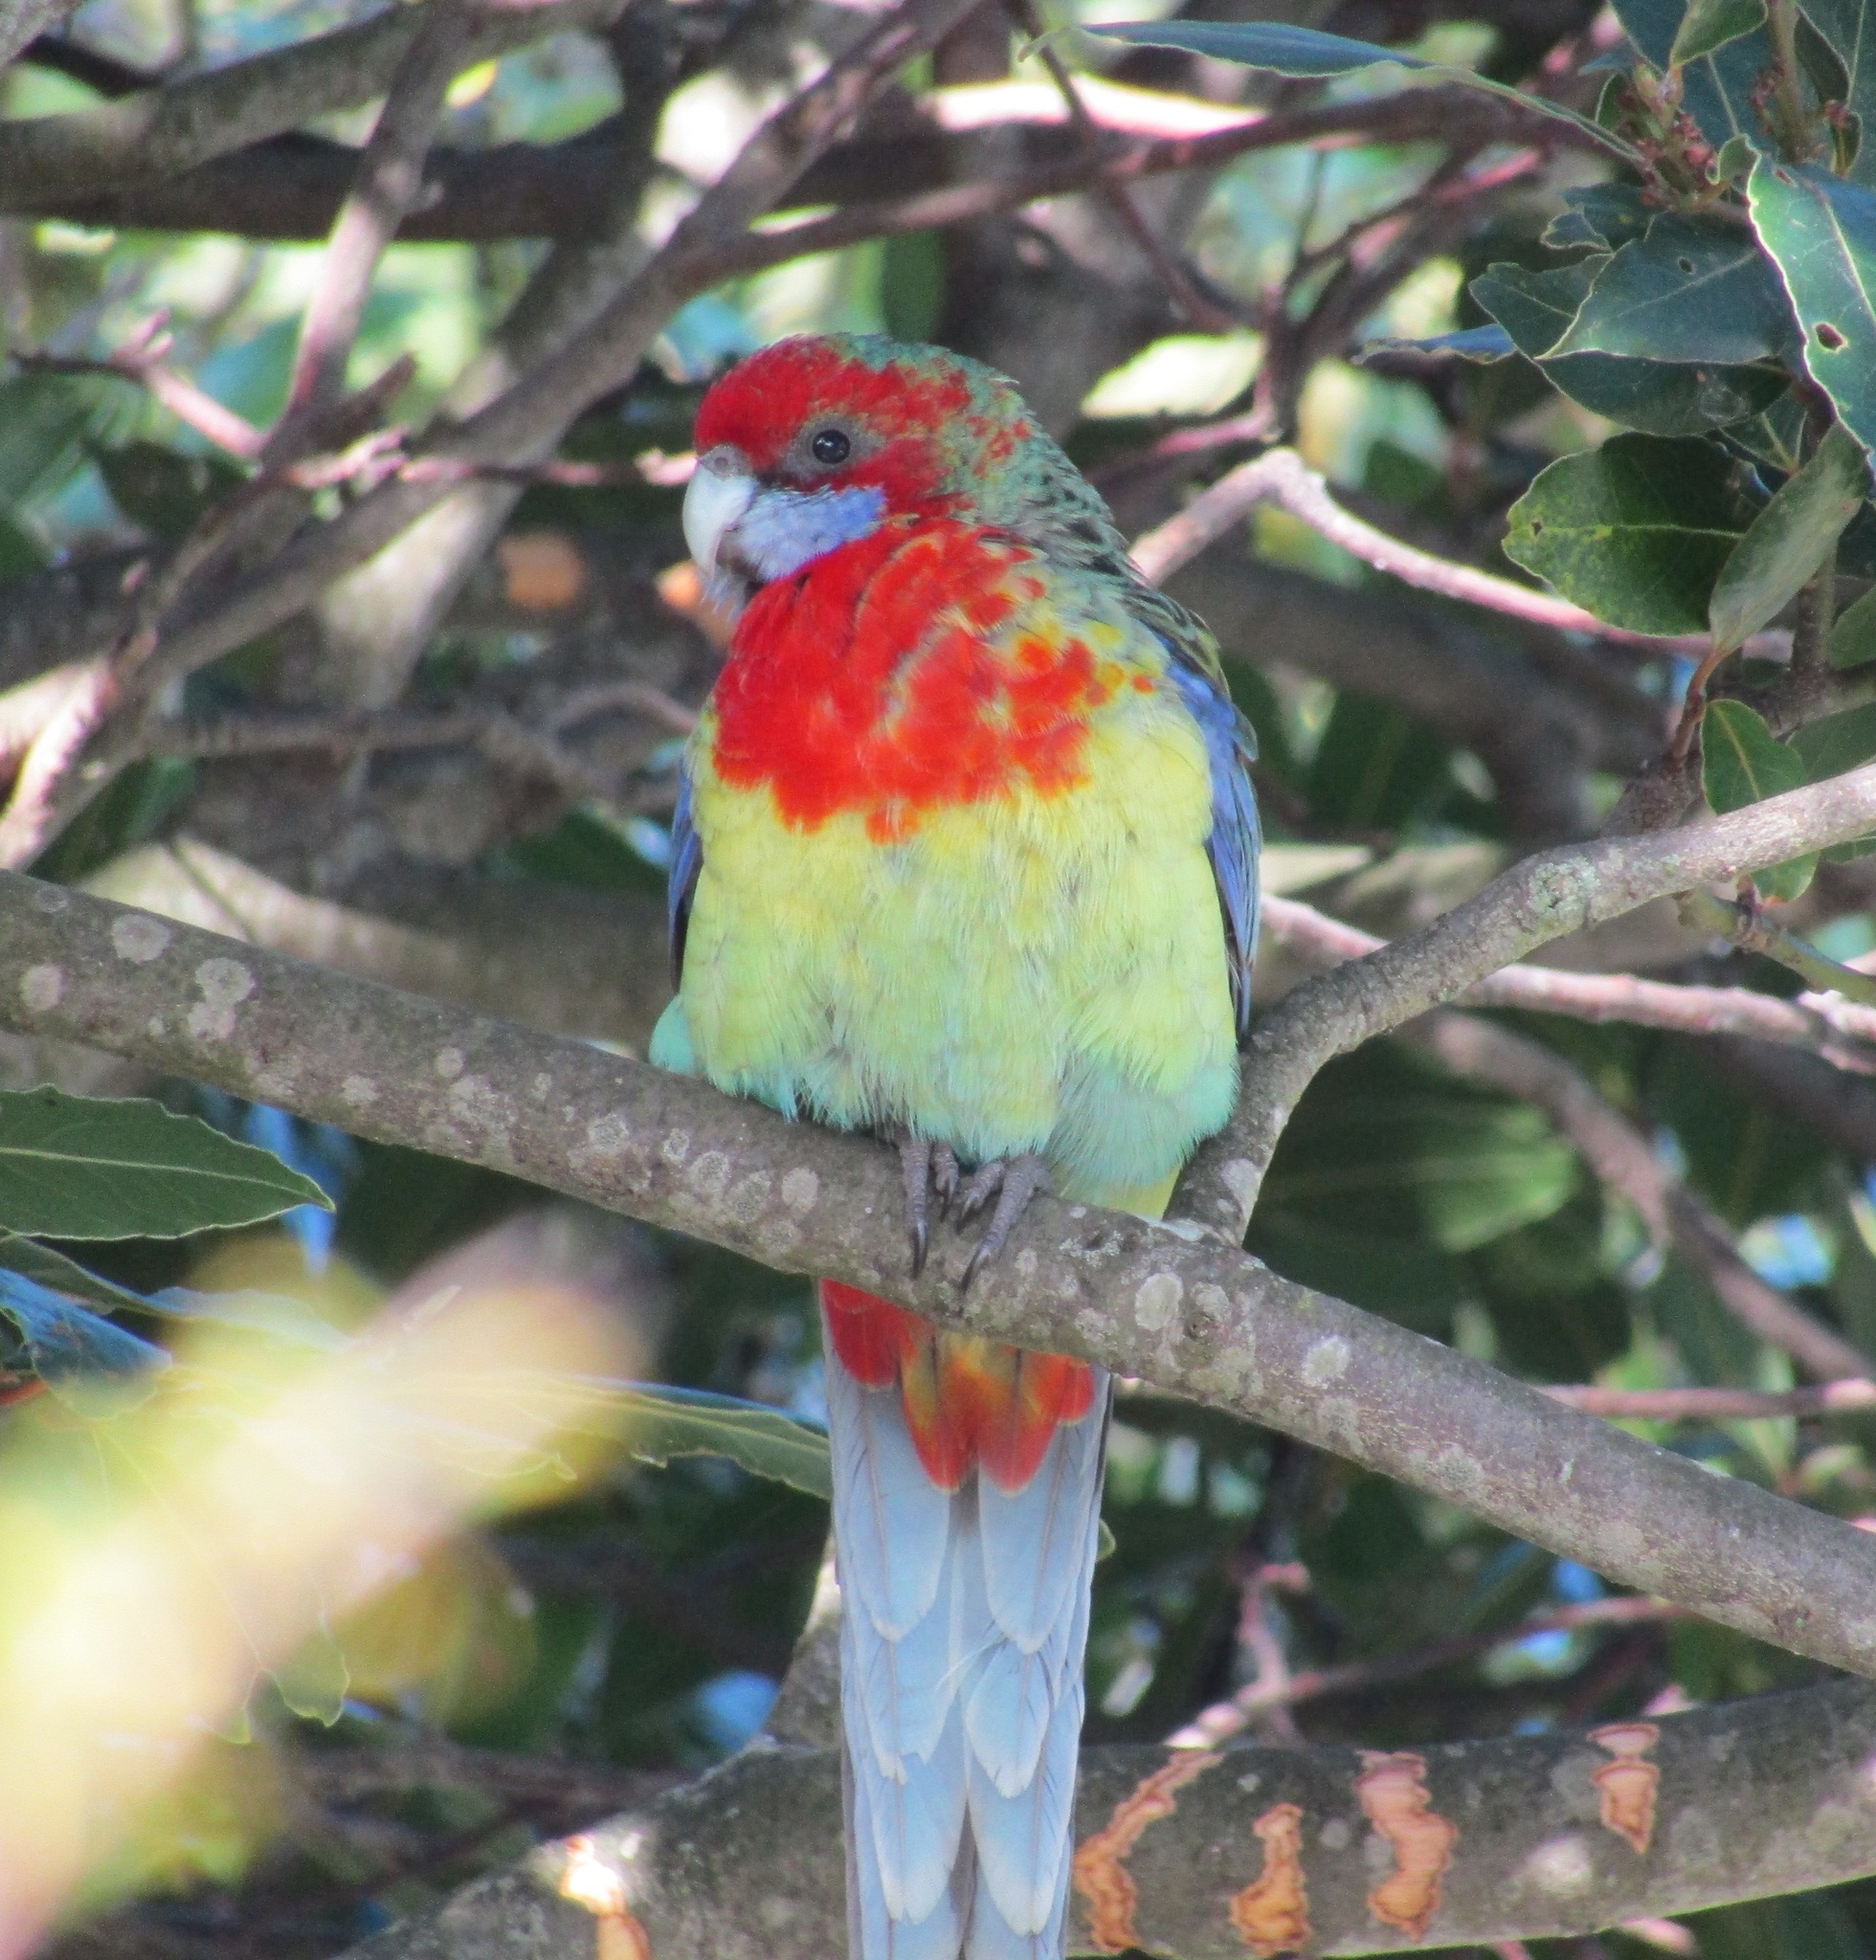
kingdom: Animalia
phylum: Chordata
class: Aves
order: Psittaciformes
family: Psittacidae
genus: Platycercus
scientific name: Platycercus eximius
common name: Eastern rosella
